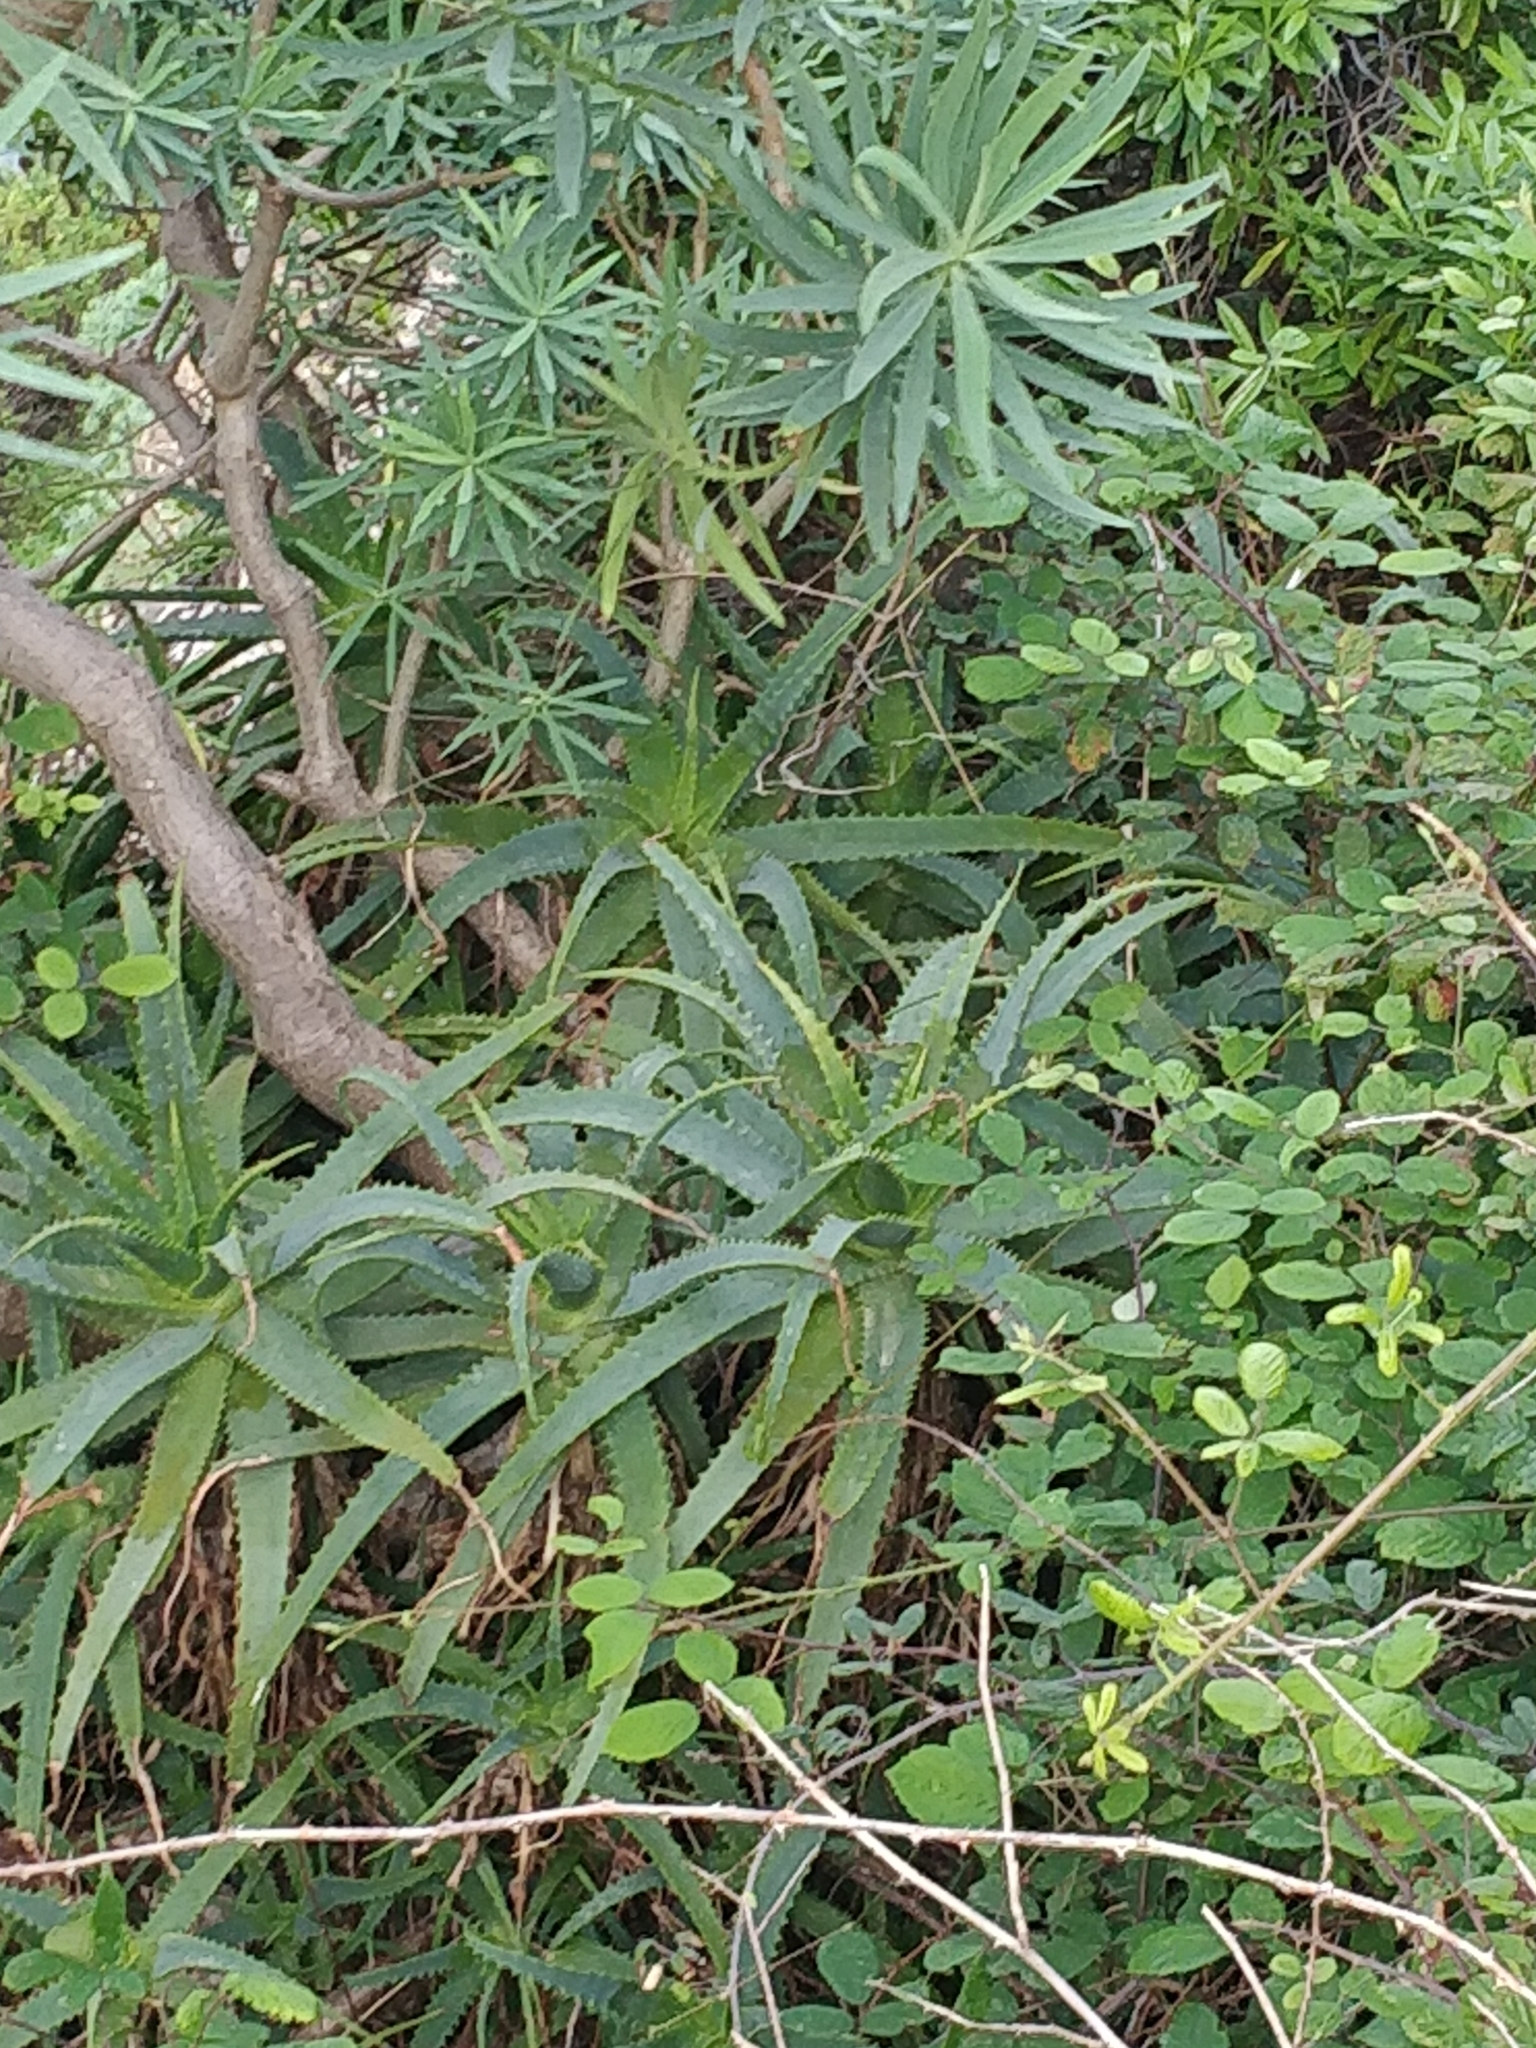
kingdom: Plantae
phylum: Tracheophyta
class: Liliopsida
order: Asparagales
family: Asphodelaceae
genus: Aloe
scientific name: Aloe arborescens
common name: Candelabra aloe
